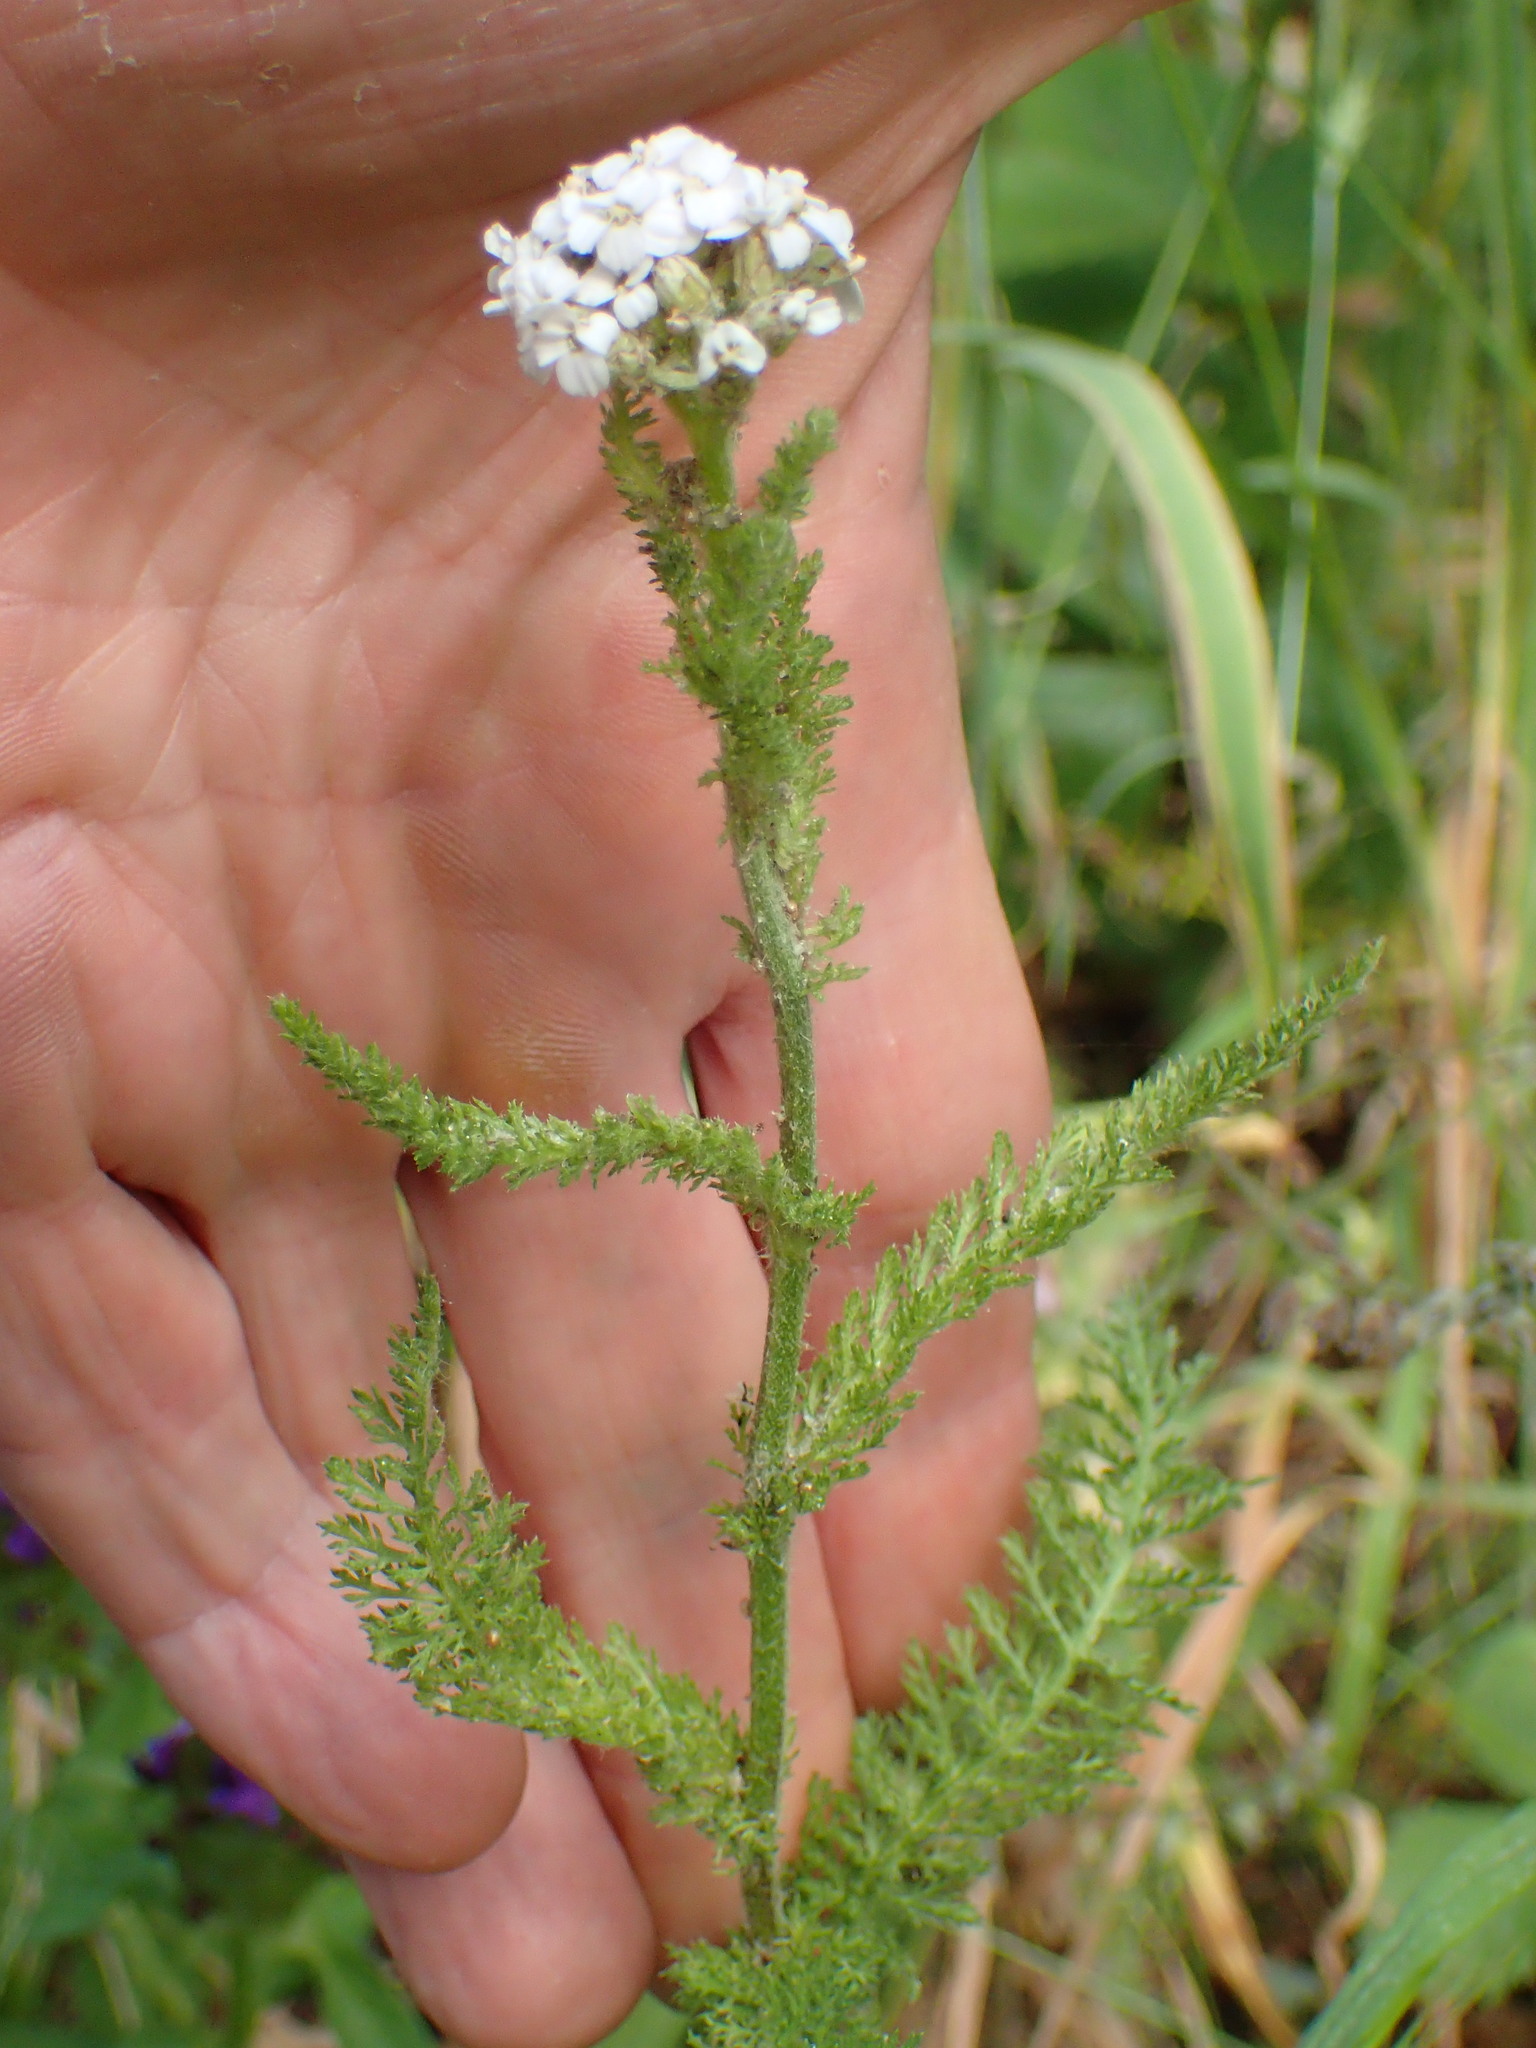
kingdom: Plantae
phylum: Tracheophyta
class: Magnoliopsida
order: Asterales
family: Asteraceae
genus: Achillea
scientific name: Achillea millefolium
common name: Yarrow
